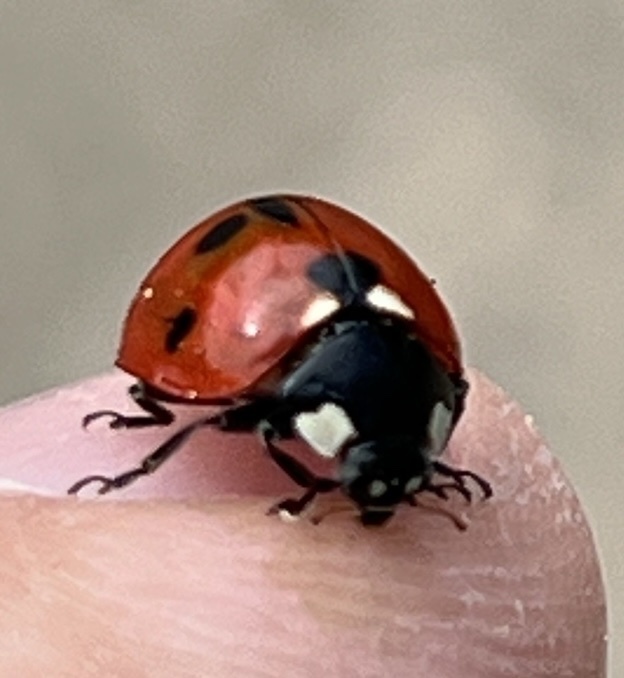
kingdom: Animalia
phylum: Arthropoda
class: Insecta
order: Coleoptera
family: Coccinellidae
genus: Coccinella
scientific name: Coccinella septempunctata
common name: Sevenspotted lady beetle
